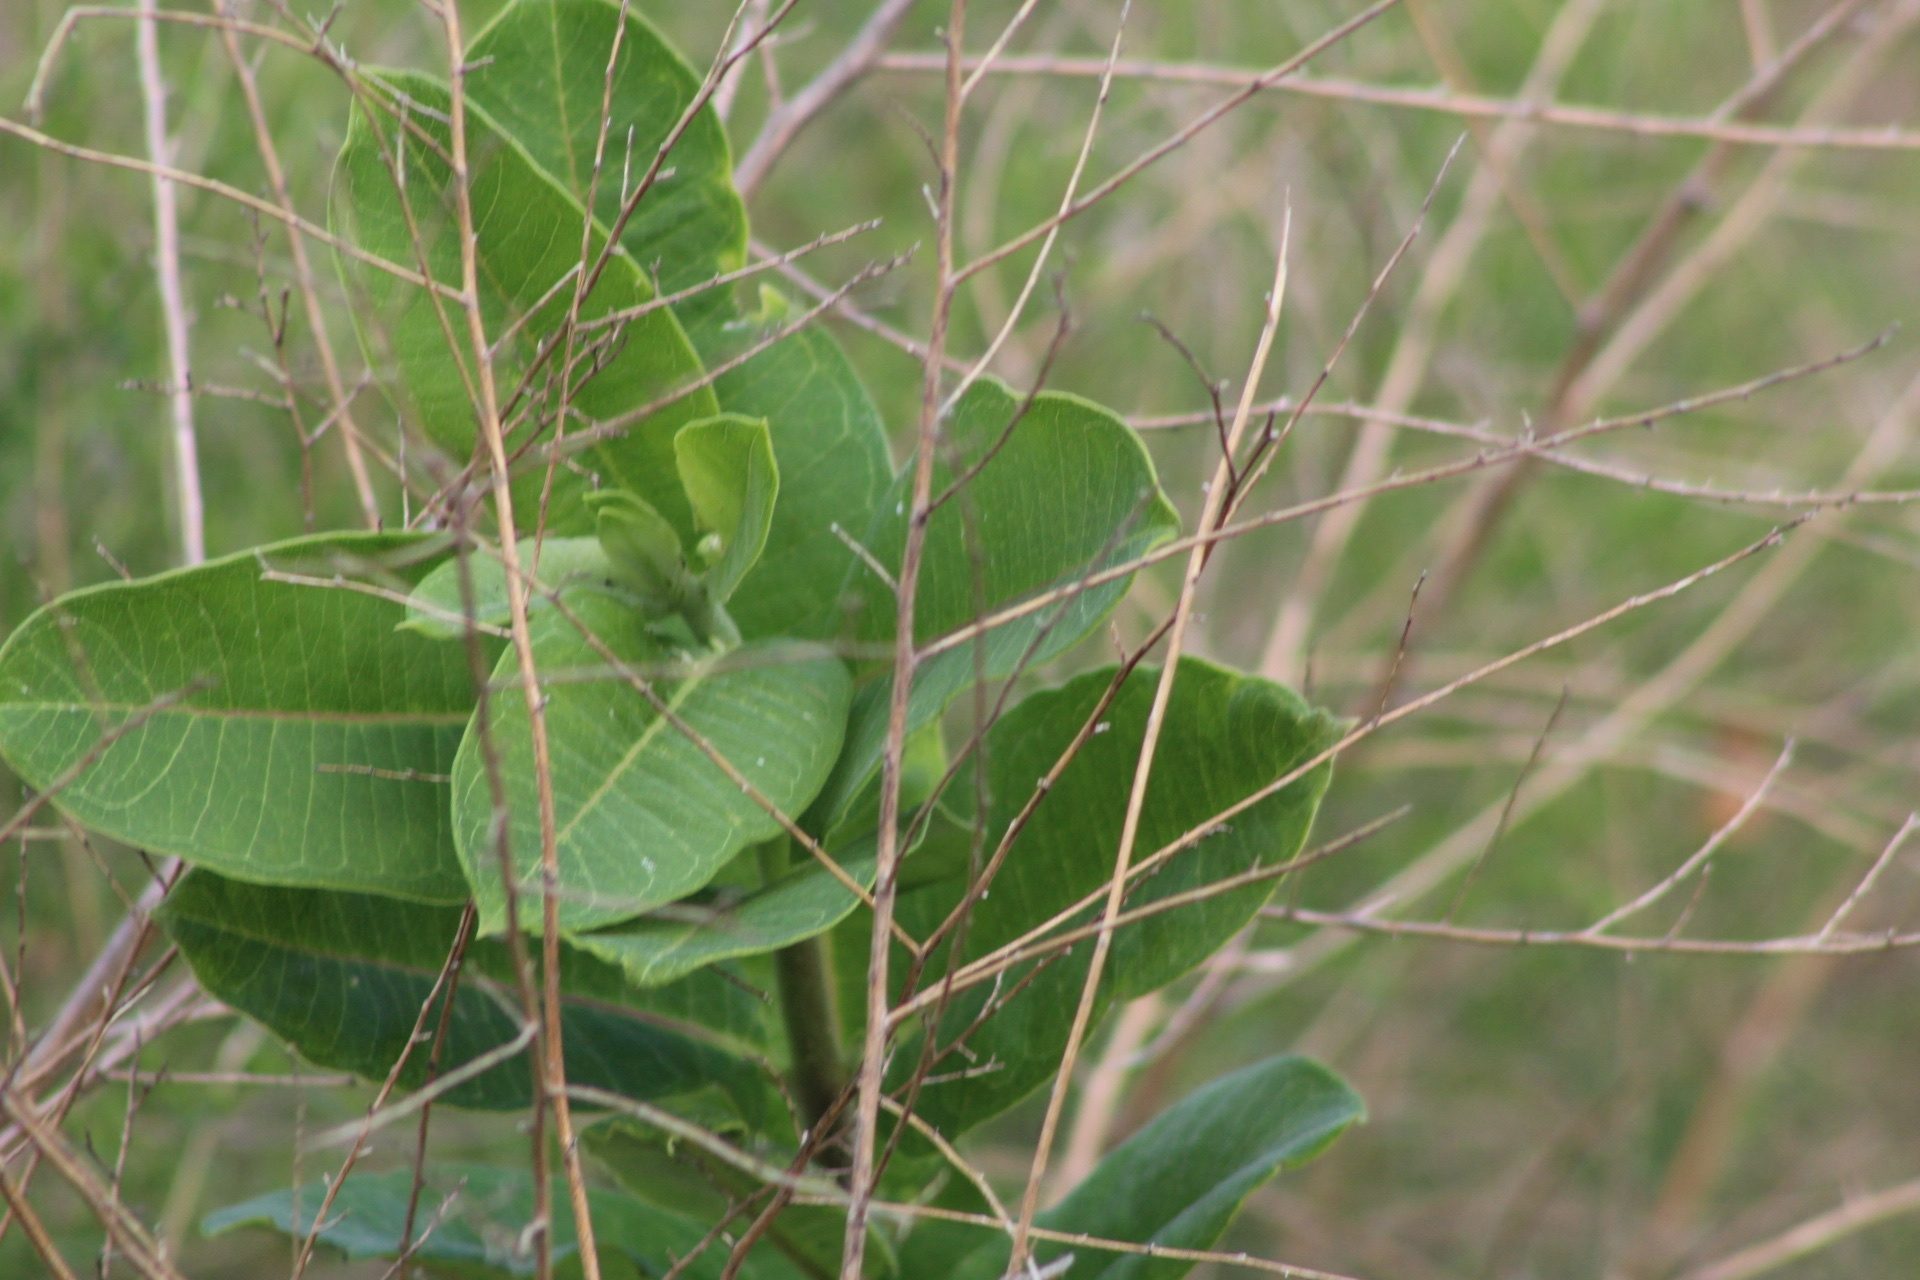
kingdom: Plantae
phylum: Tracheophyta
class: Magnoliopsida
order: Gentianales
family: Apocynaceae
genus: Asclepias
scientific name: Asclepias syriaca
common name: Common milkweed
